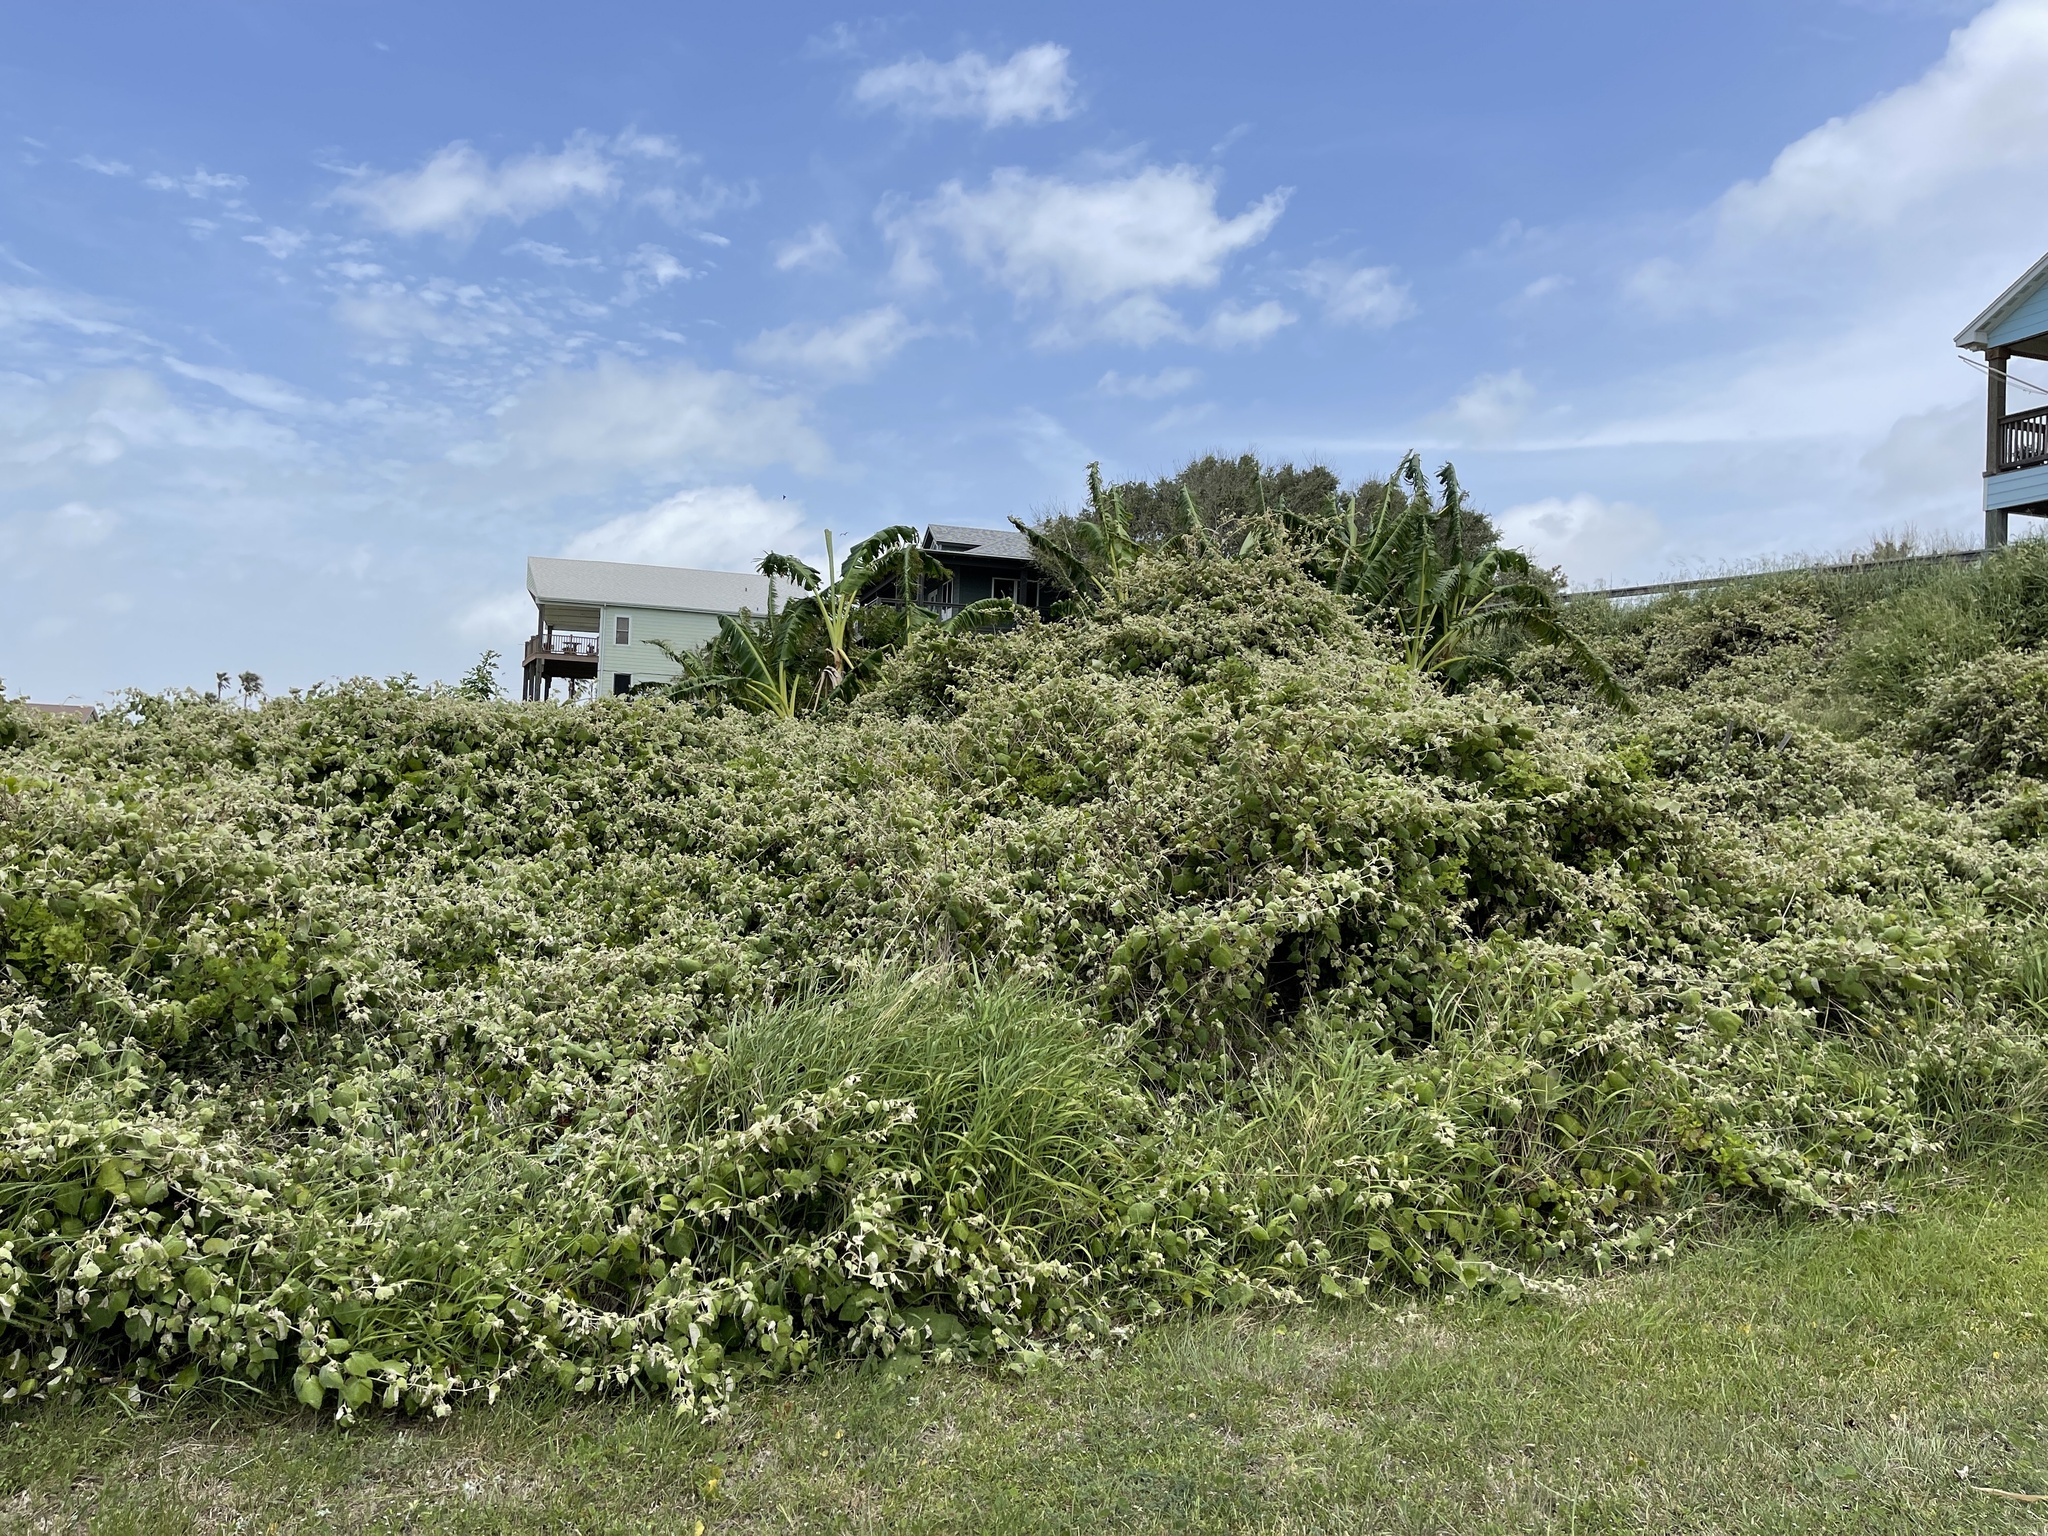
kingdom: Plantae
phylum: Tracheophyta
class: Magnoliopsida
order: Vitales
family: Vitaceae
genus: Vitis
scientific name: Vitis mustangensis
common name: Mustang grape
